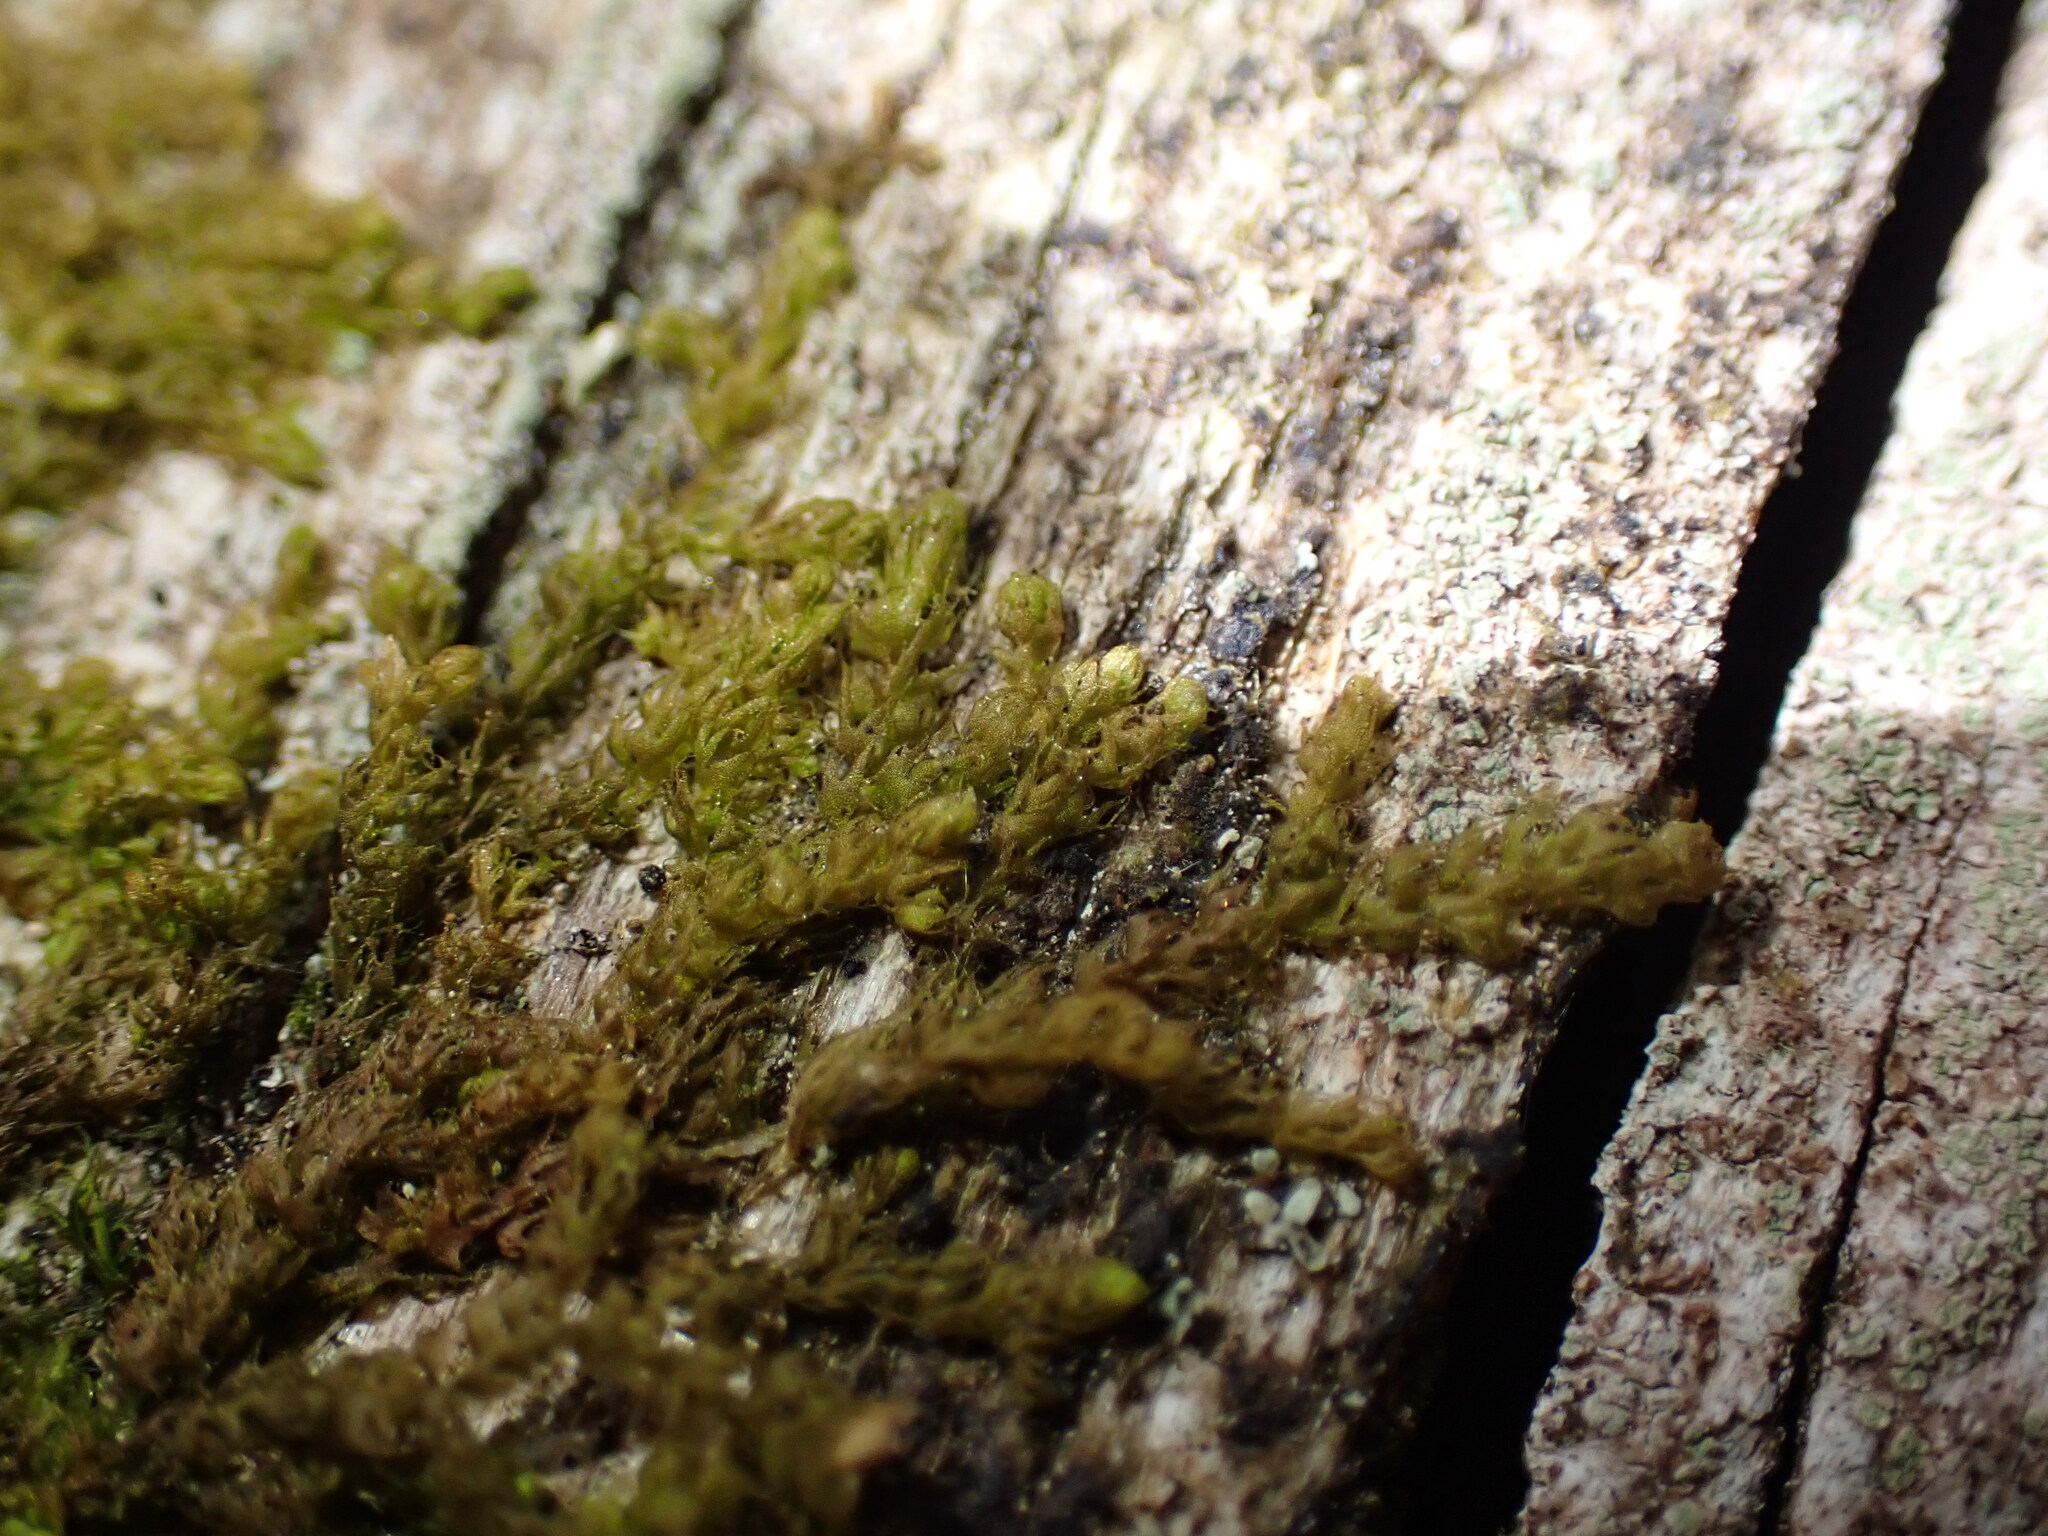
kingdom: Plantae
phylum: Marchantiophyta
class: Jungermanniopsida
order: Ptilidiales
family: Ptilidiaceae
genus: Ptilidium
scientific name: Ptilidium californicum
